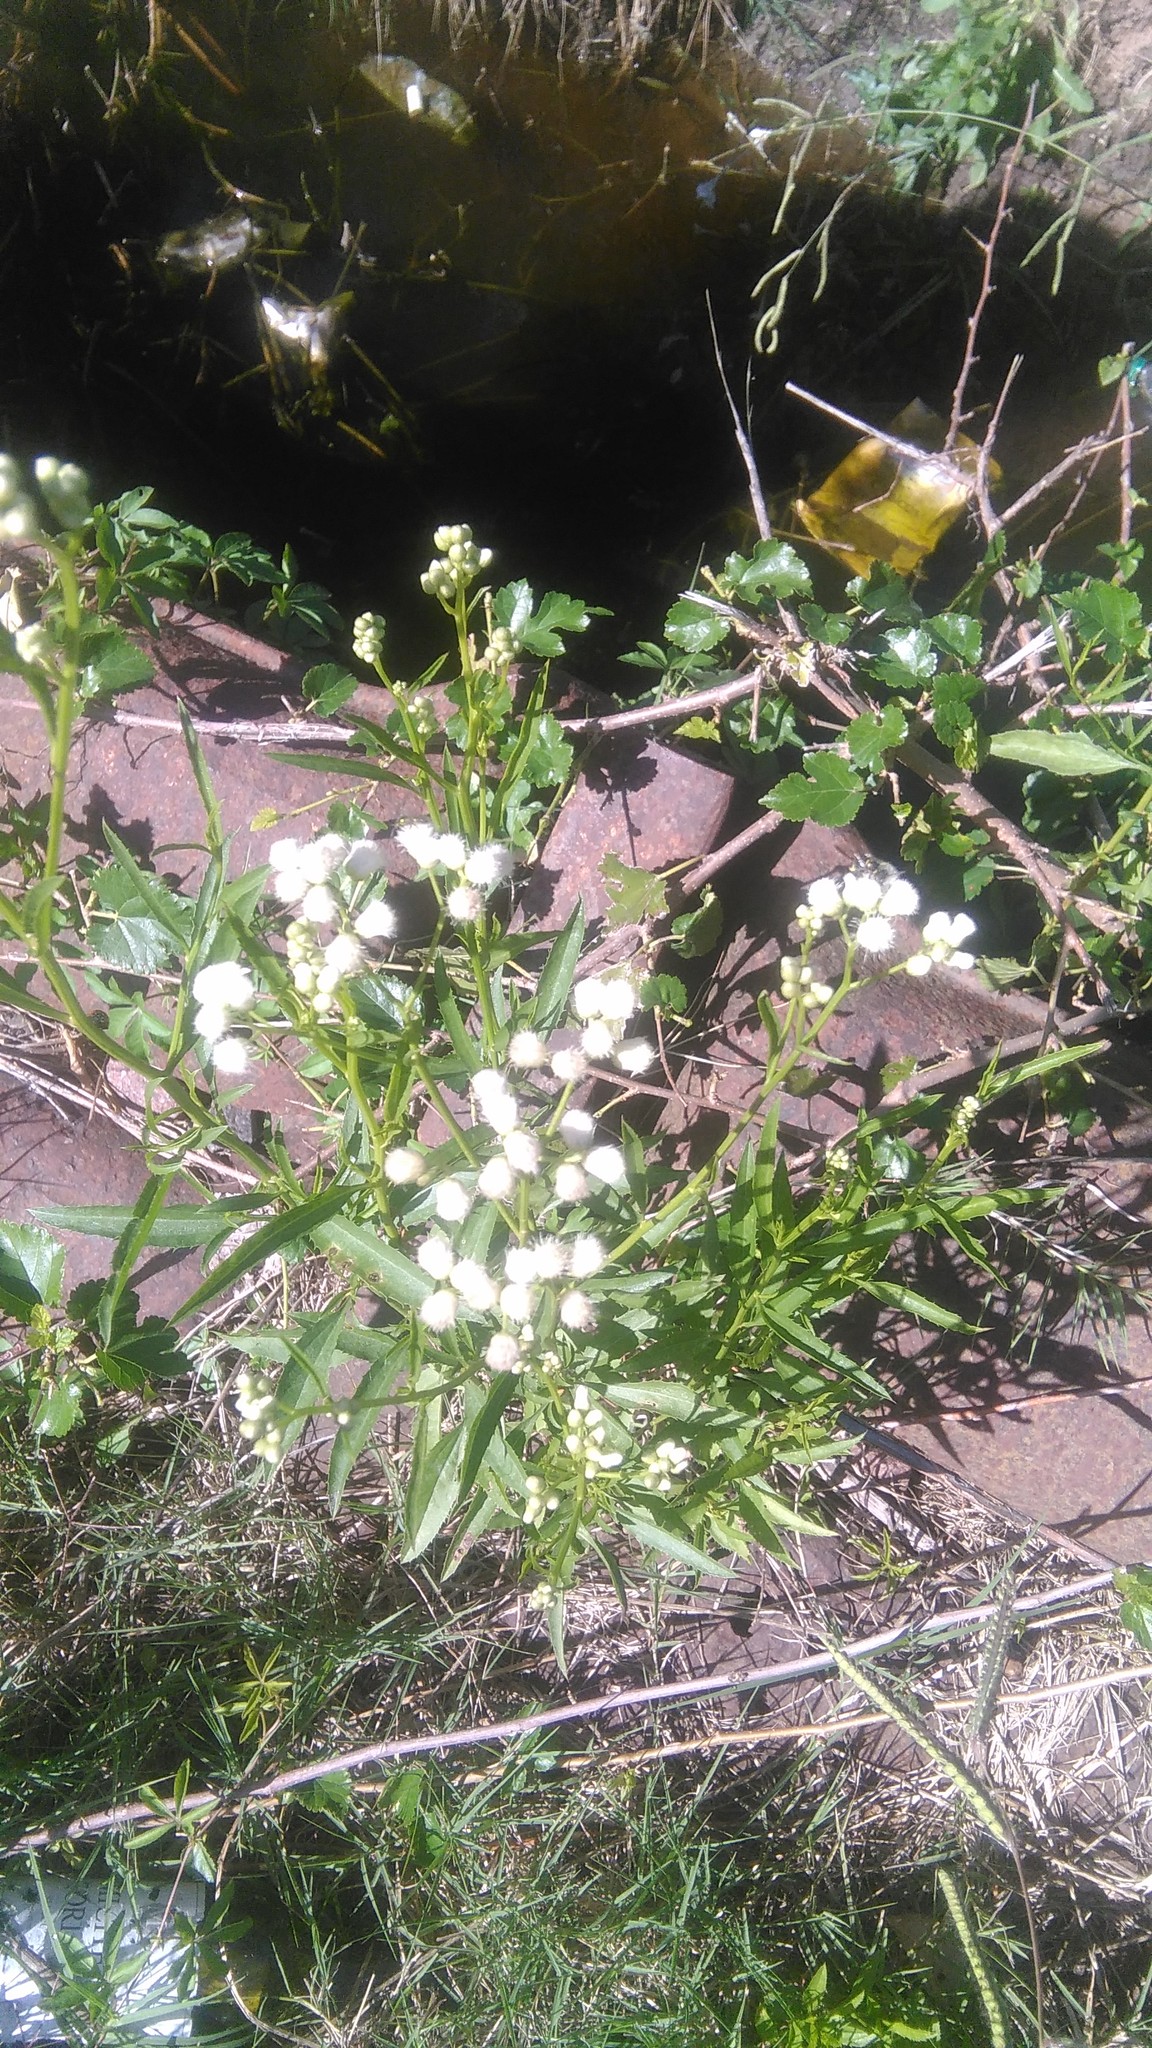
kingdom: Plantae
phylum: Tracheophyta
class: Magnoliopsida
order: Asterales
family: Asteraceae
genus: Baccharis
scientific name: Baccharis glutinosa
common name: Saltmarsh baccharis
